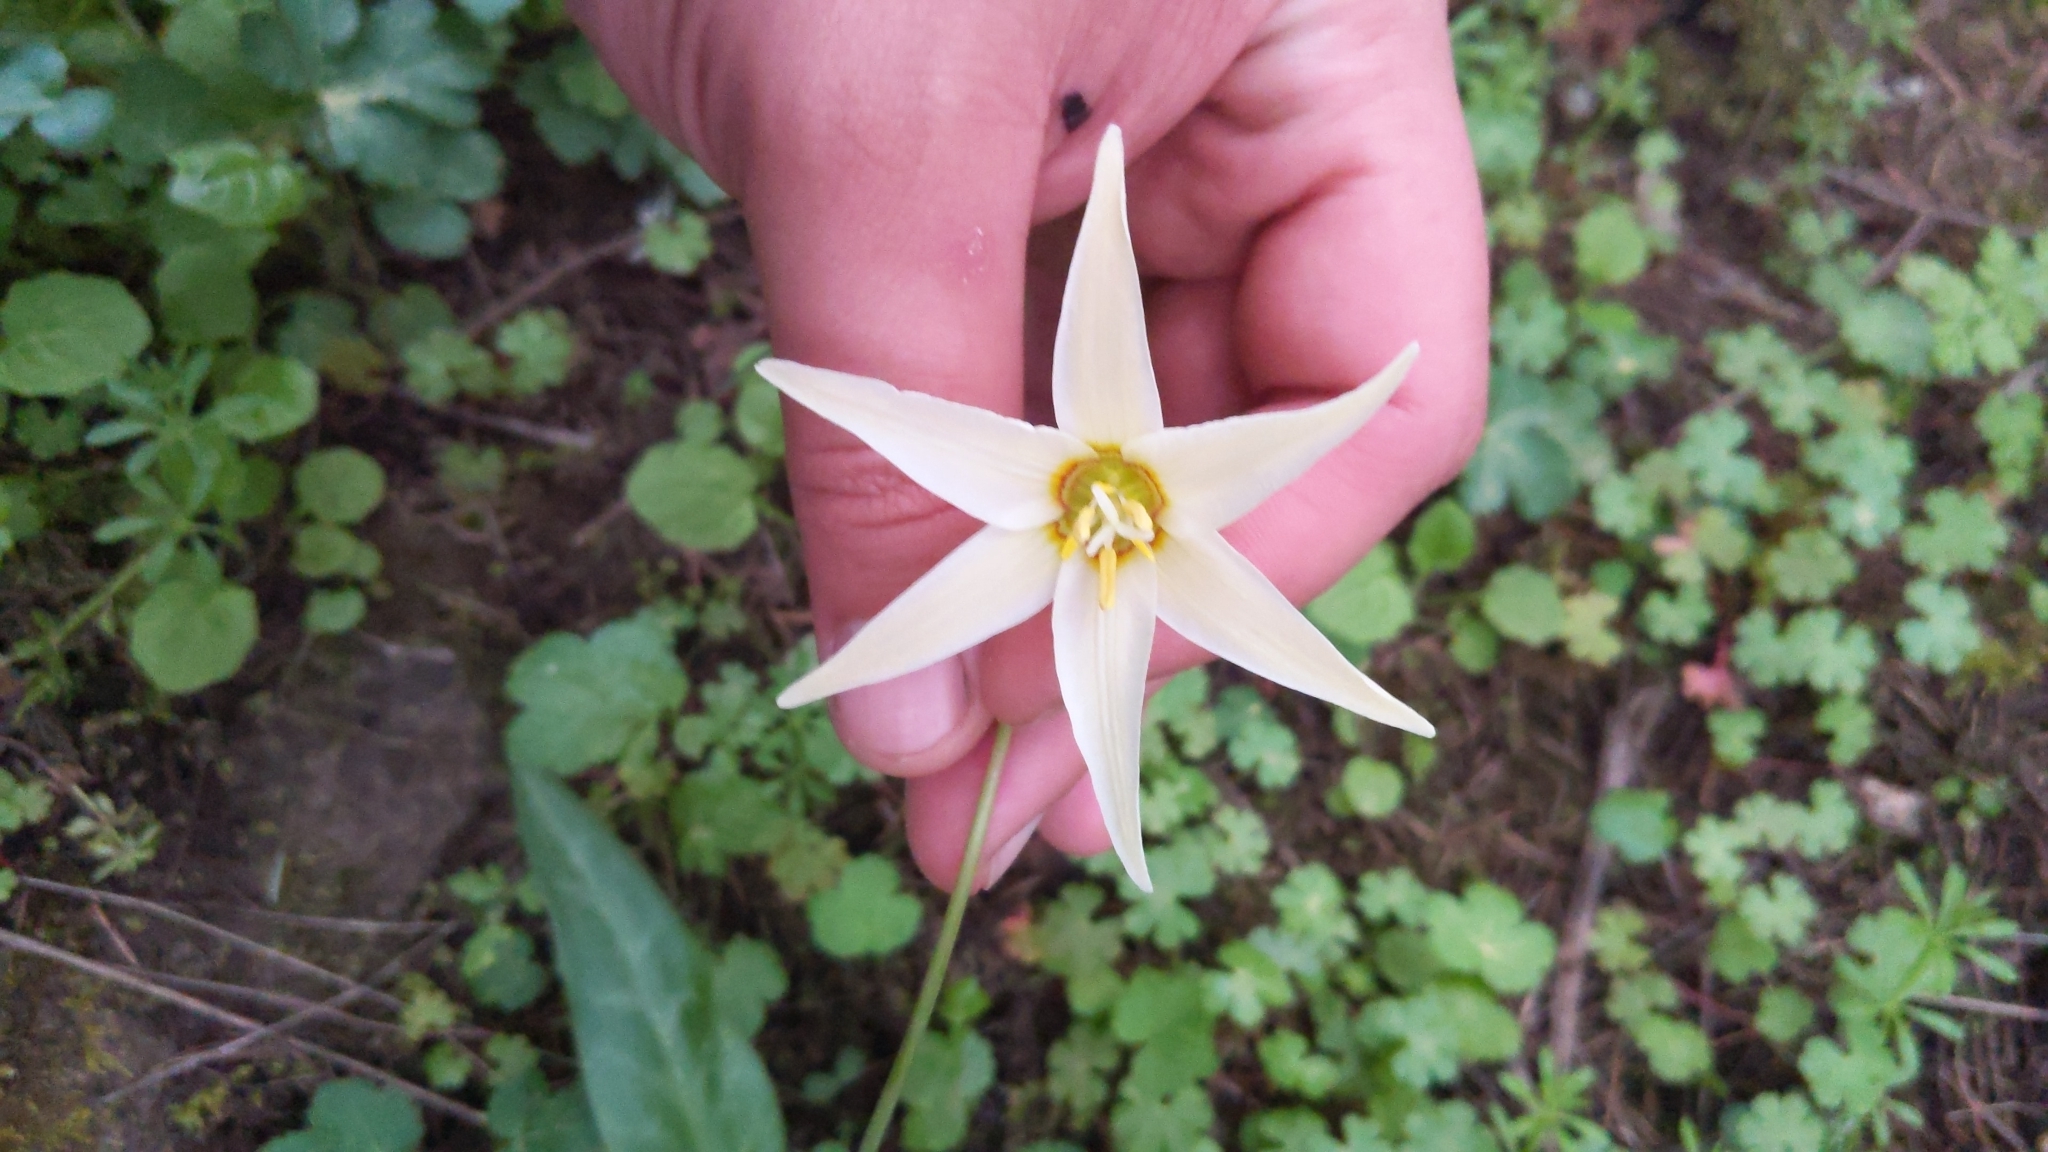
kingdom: Plantae
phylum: Tracheophyta
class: Liliopsida
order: Liliales
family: Liliaceae
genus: Erythronium
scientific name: Erythronium oregonum
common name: Giant adder's-tongue
